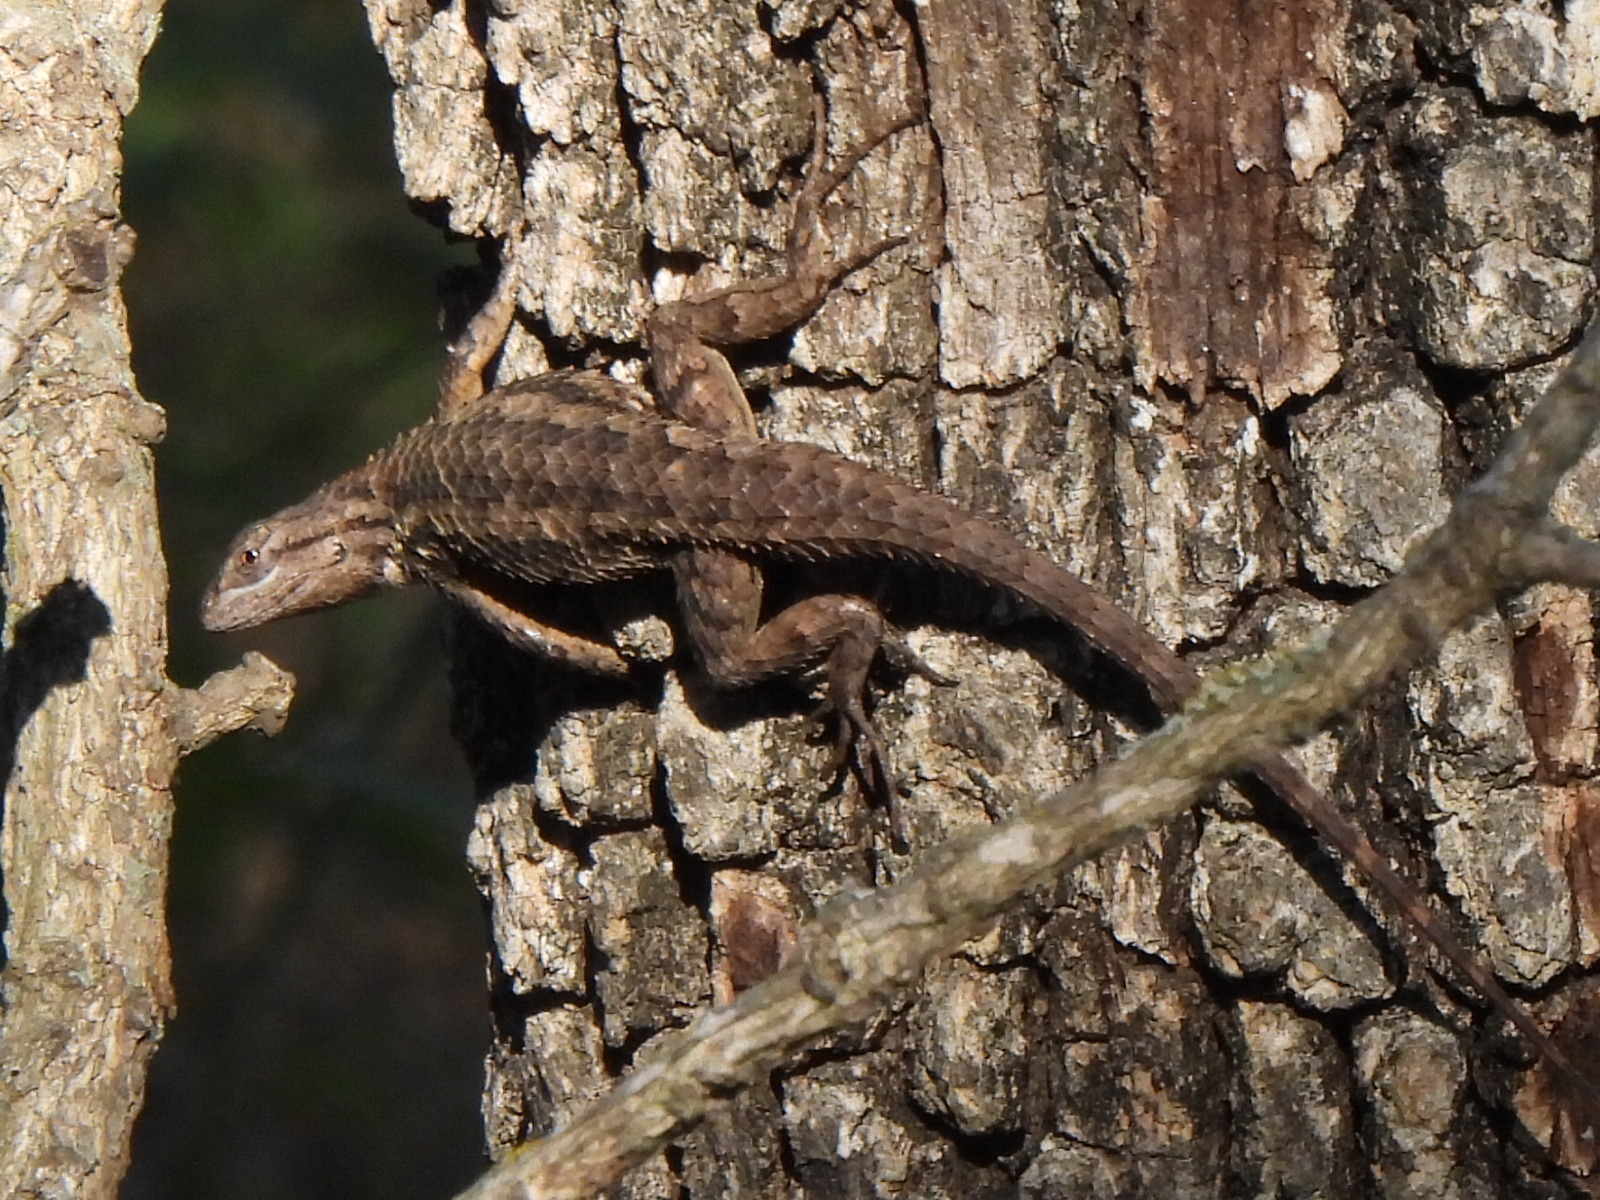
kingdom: Animalia
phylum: Chordata
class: Squamata
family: Phrynosomatidae
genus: Sceloporus
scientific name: Sceloporus olivaceus
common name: Texas spiny lizard
